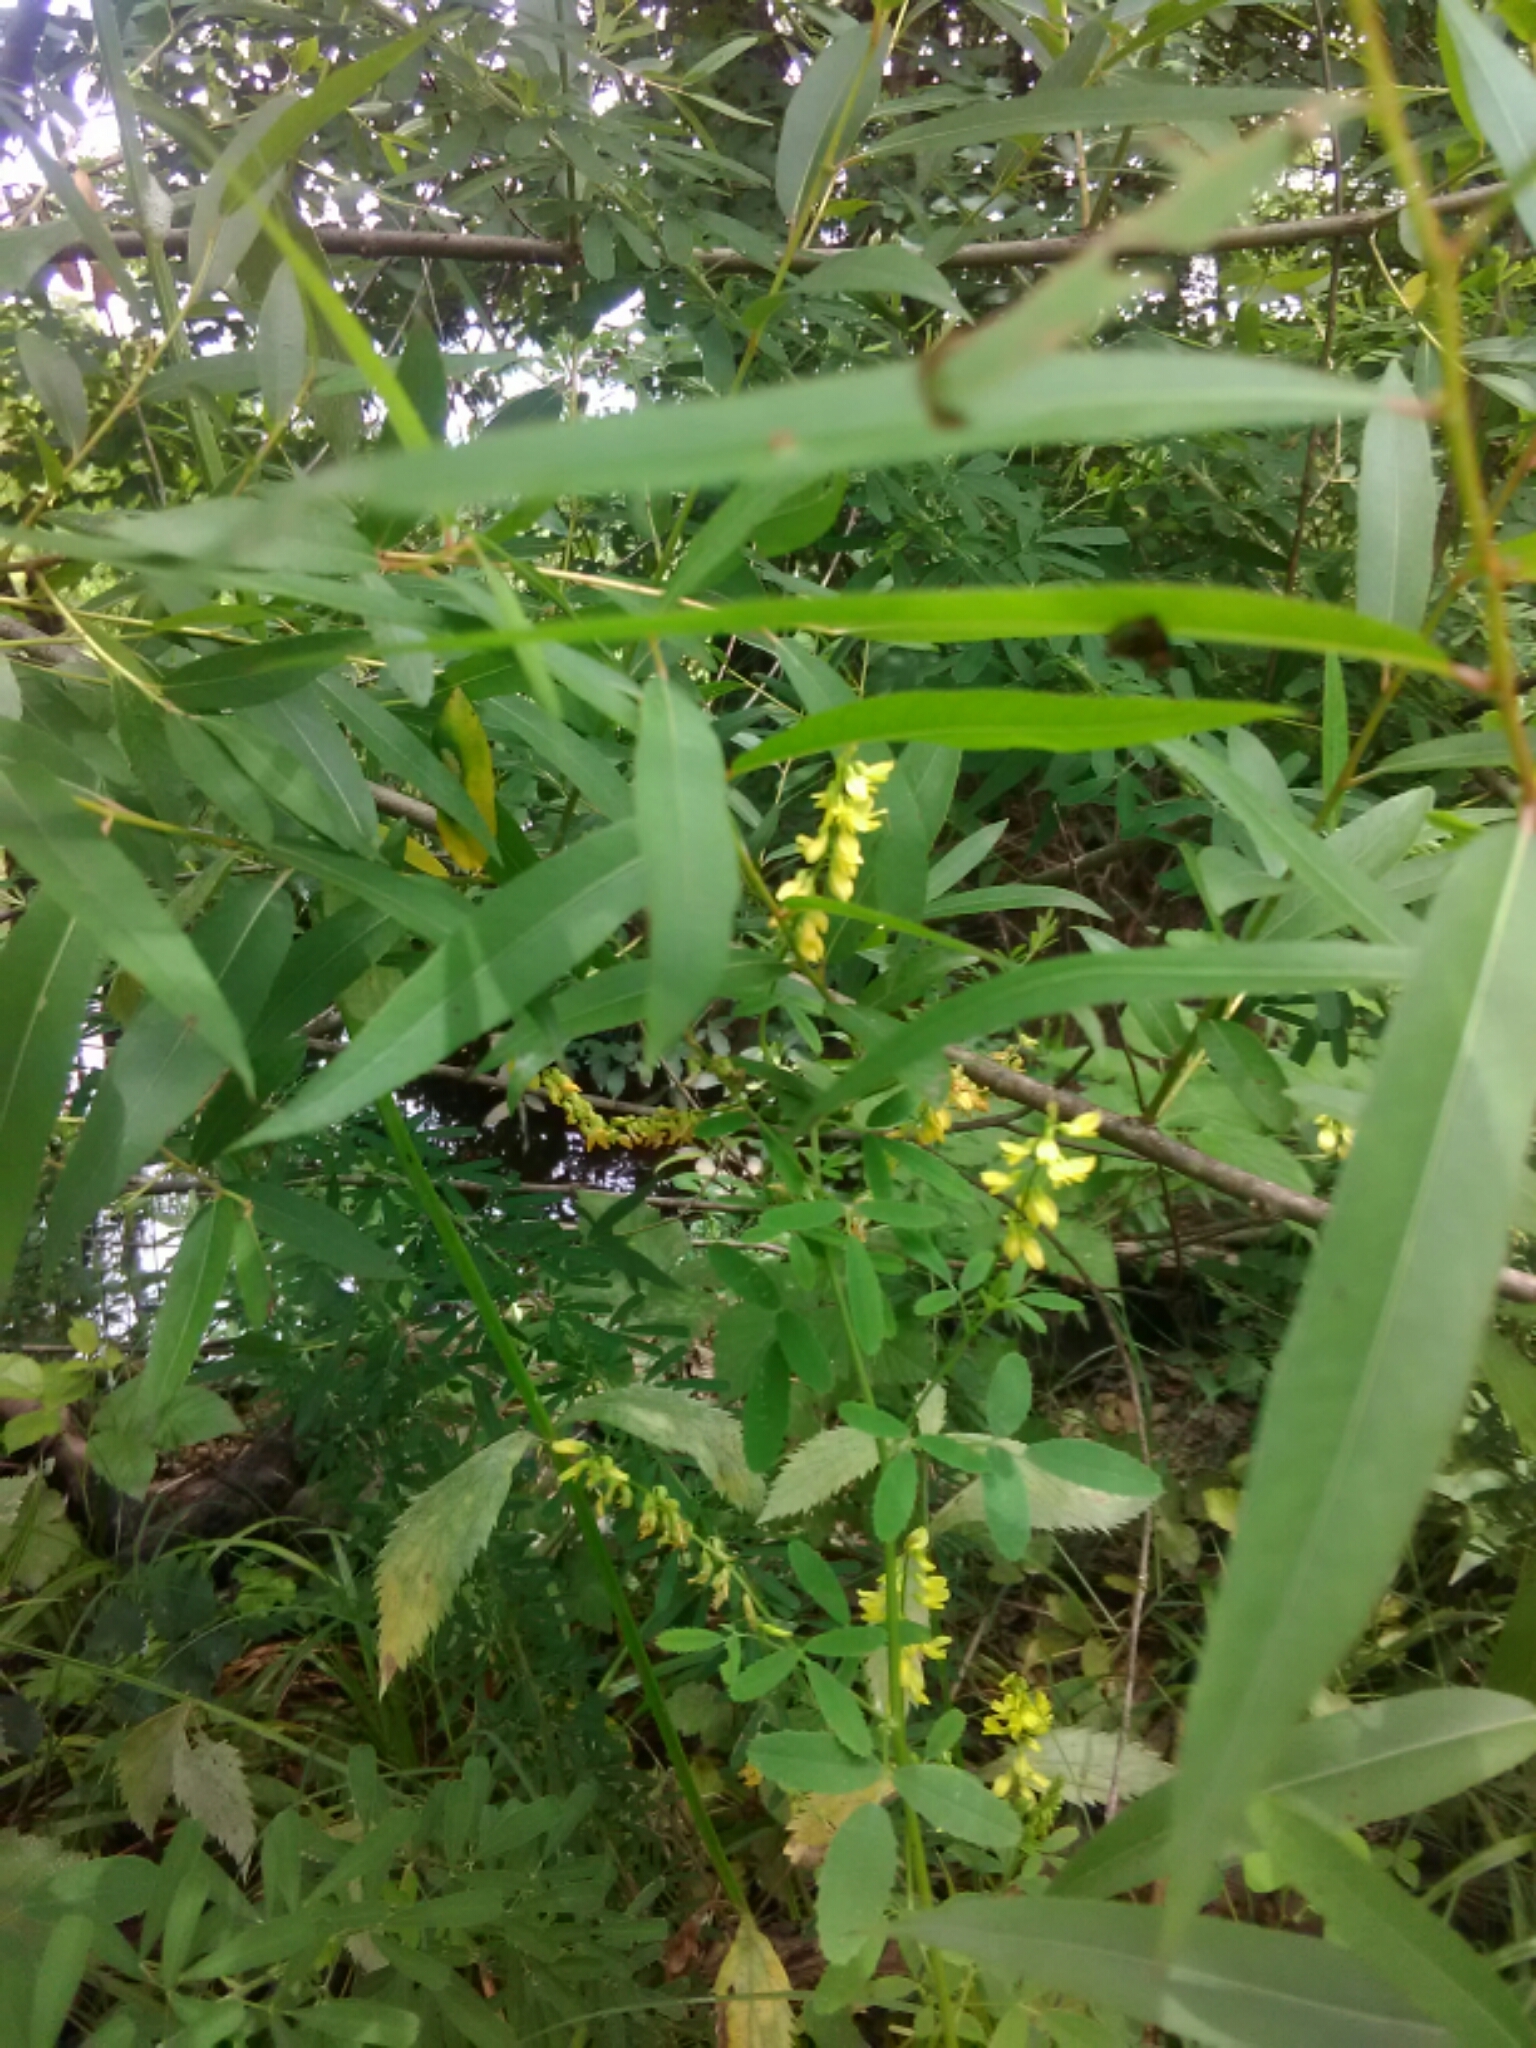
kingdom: Plantae
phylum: Tracheophyta
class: Magnoliopsida
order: Fabales
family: Fabaceae
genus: Melilotus
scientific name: Melilotus officinalis
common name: Sweetclover
